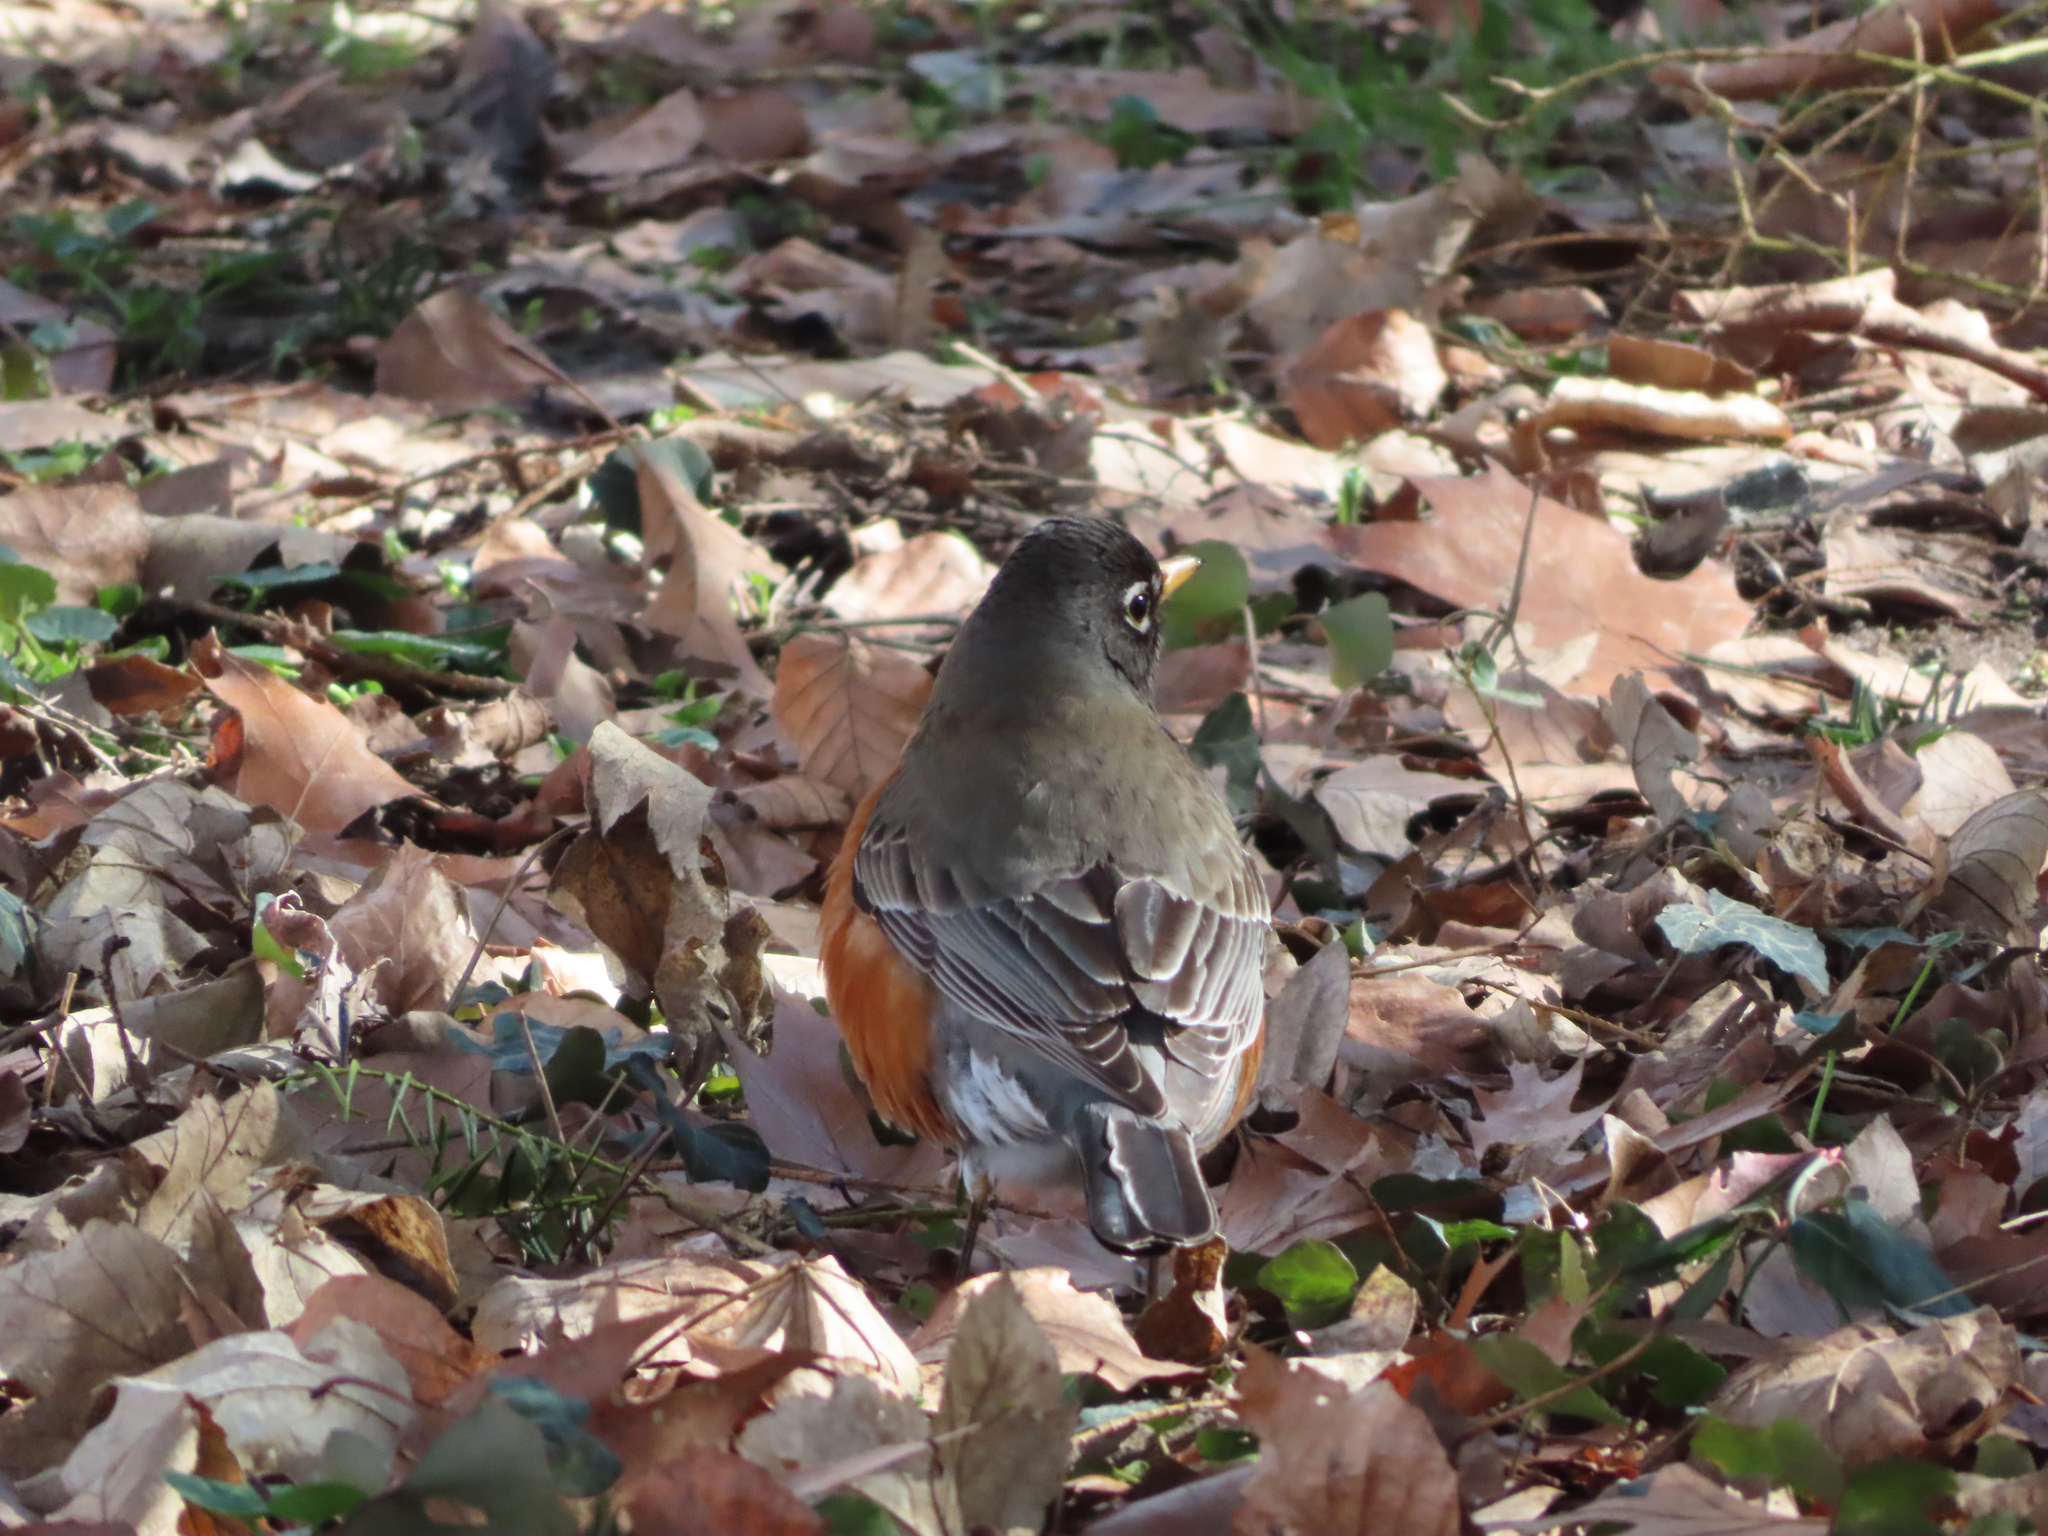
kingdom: Animalia
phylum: Chordata
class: Aves
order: Passeriformes
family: Turdidae
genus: Turdus
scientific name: Turdus migratorius
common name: American robin
